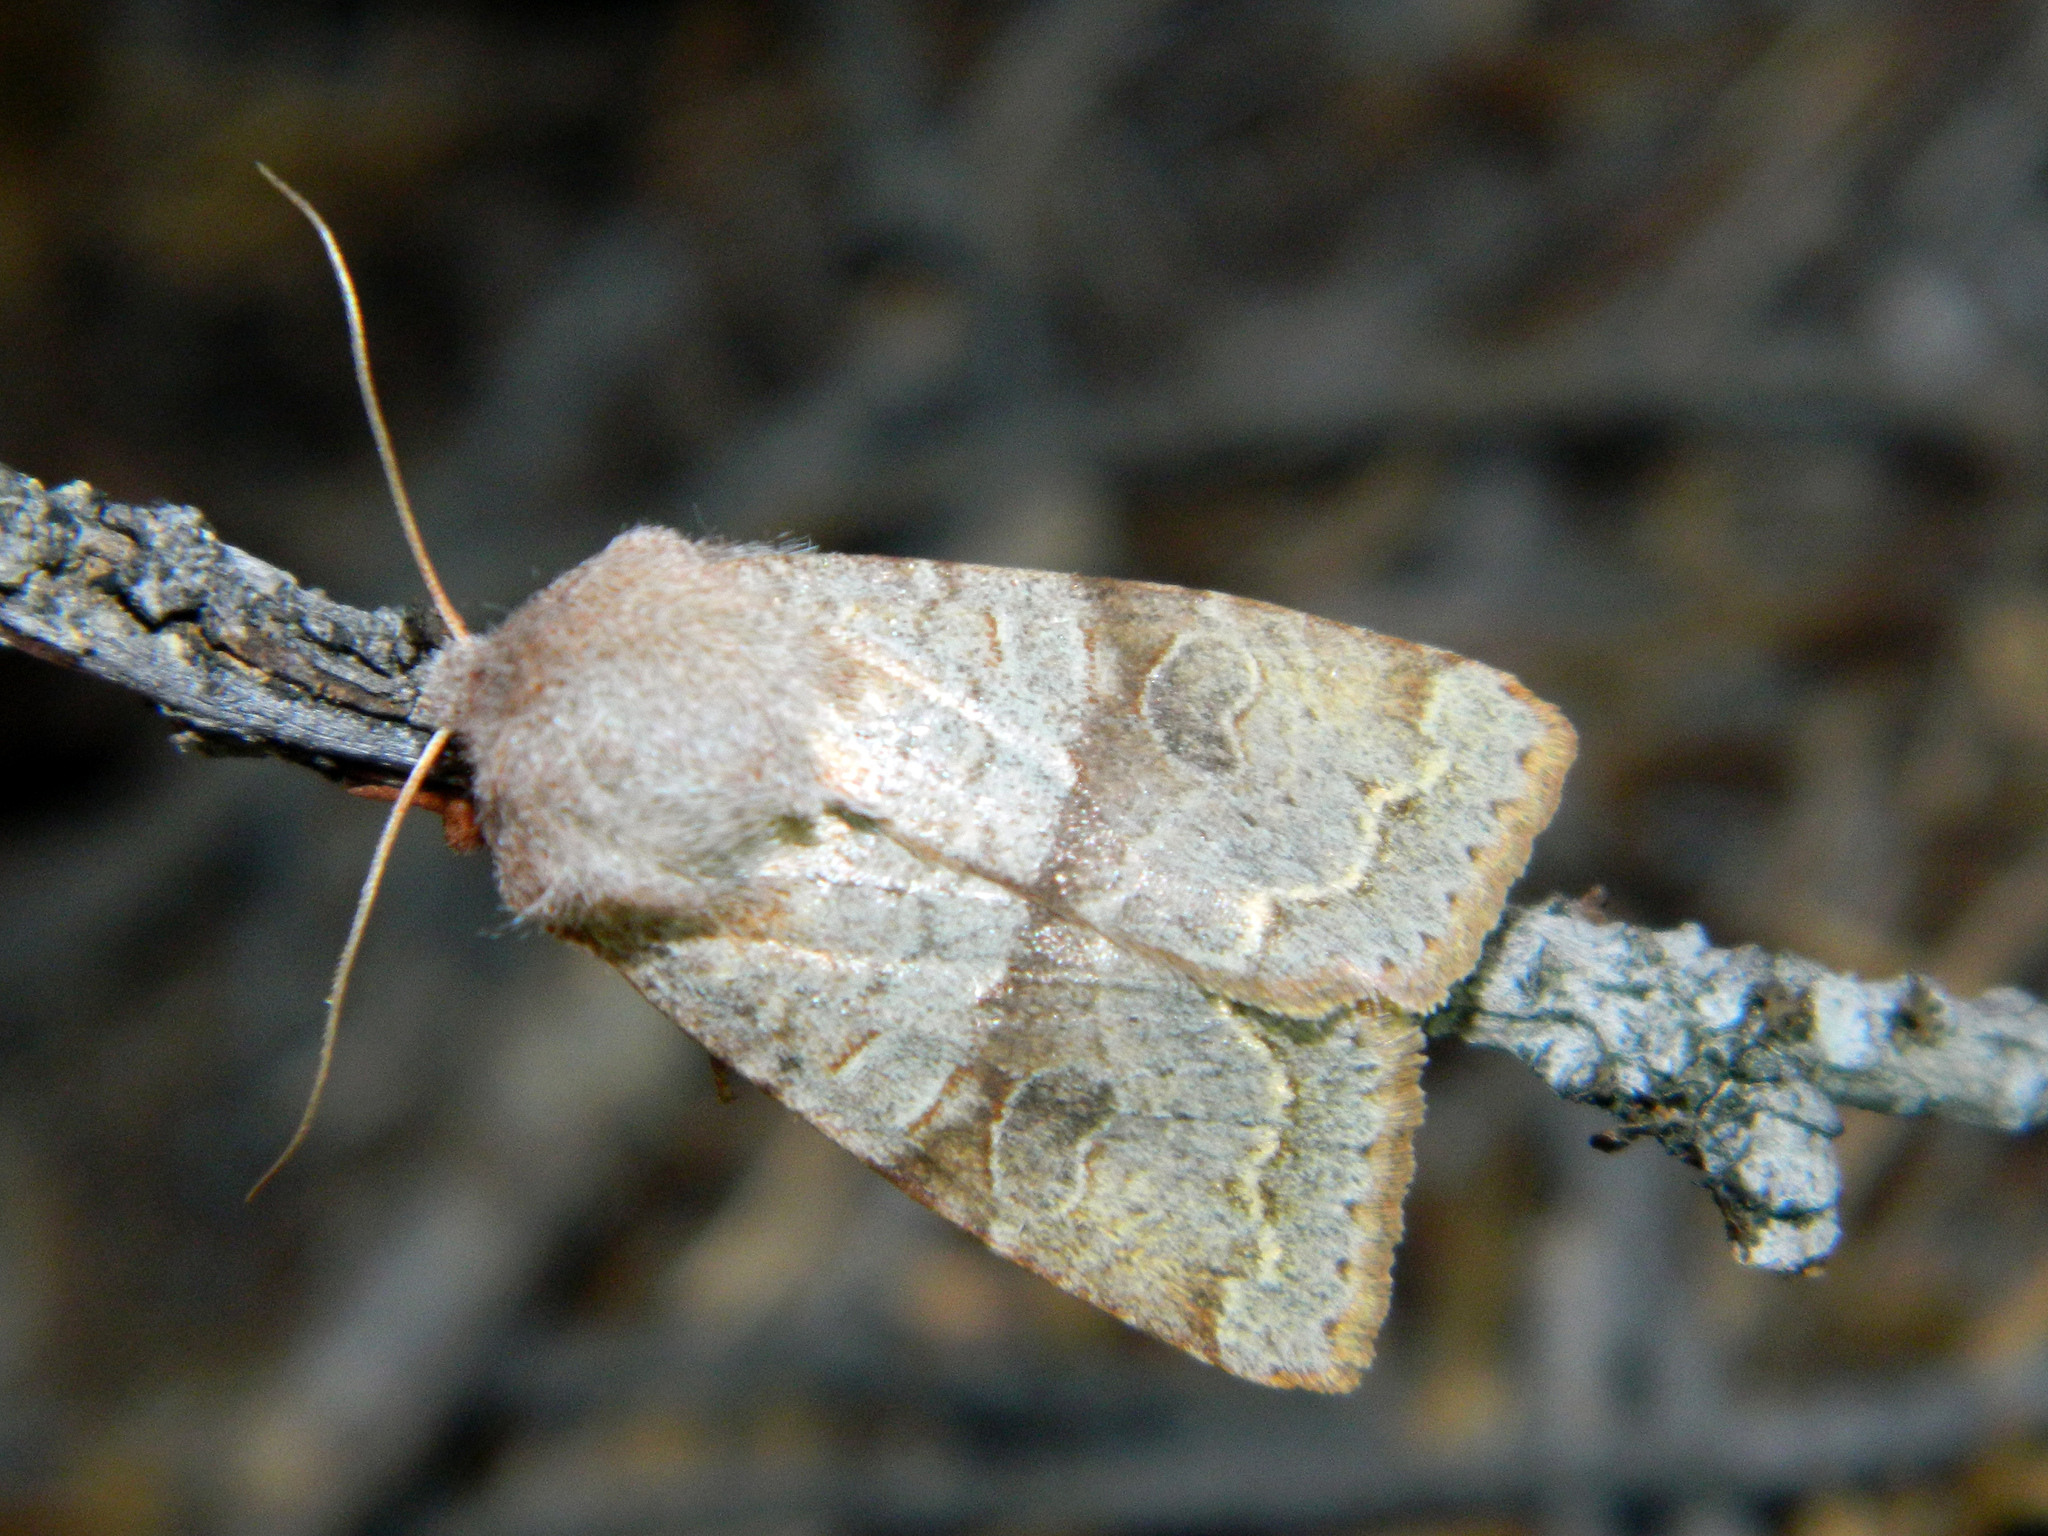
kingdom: Animalia
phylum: Arthropoda
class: Insecta
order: Lepidoptera
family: Noctuidae
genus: Orthosia
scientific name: Orthosia revicta
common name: Rusty whitesided caterpillar
